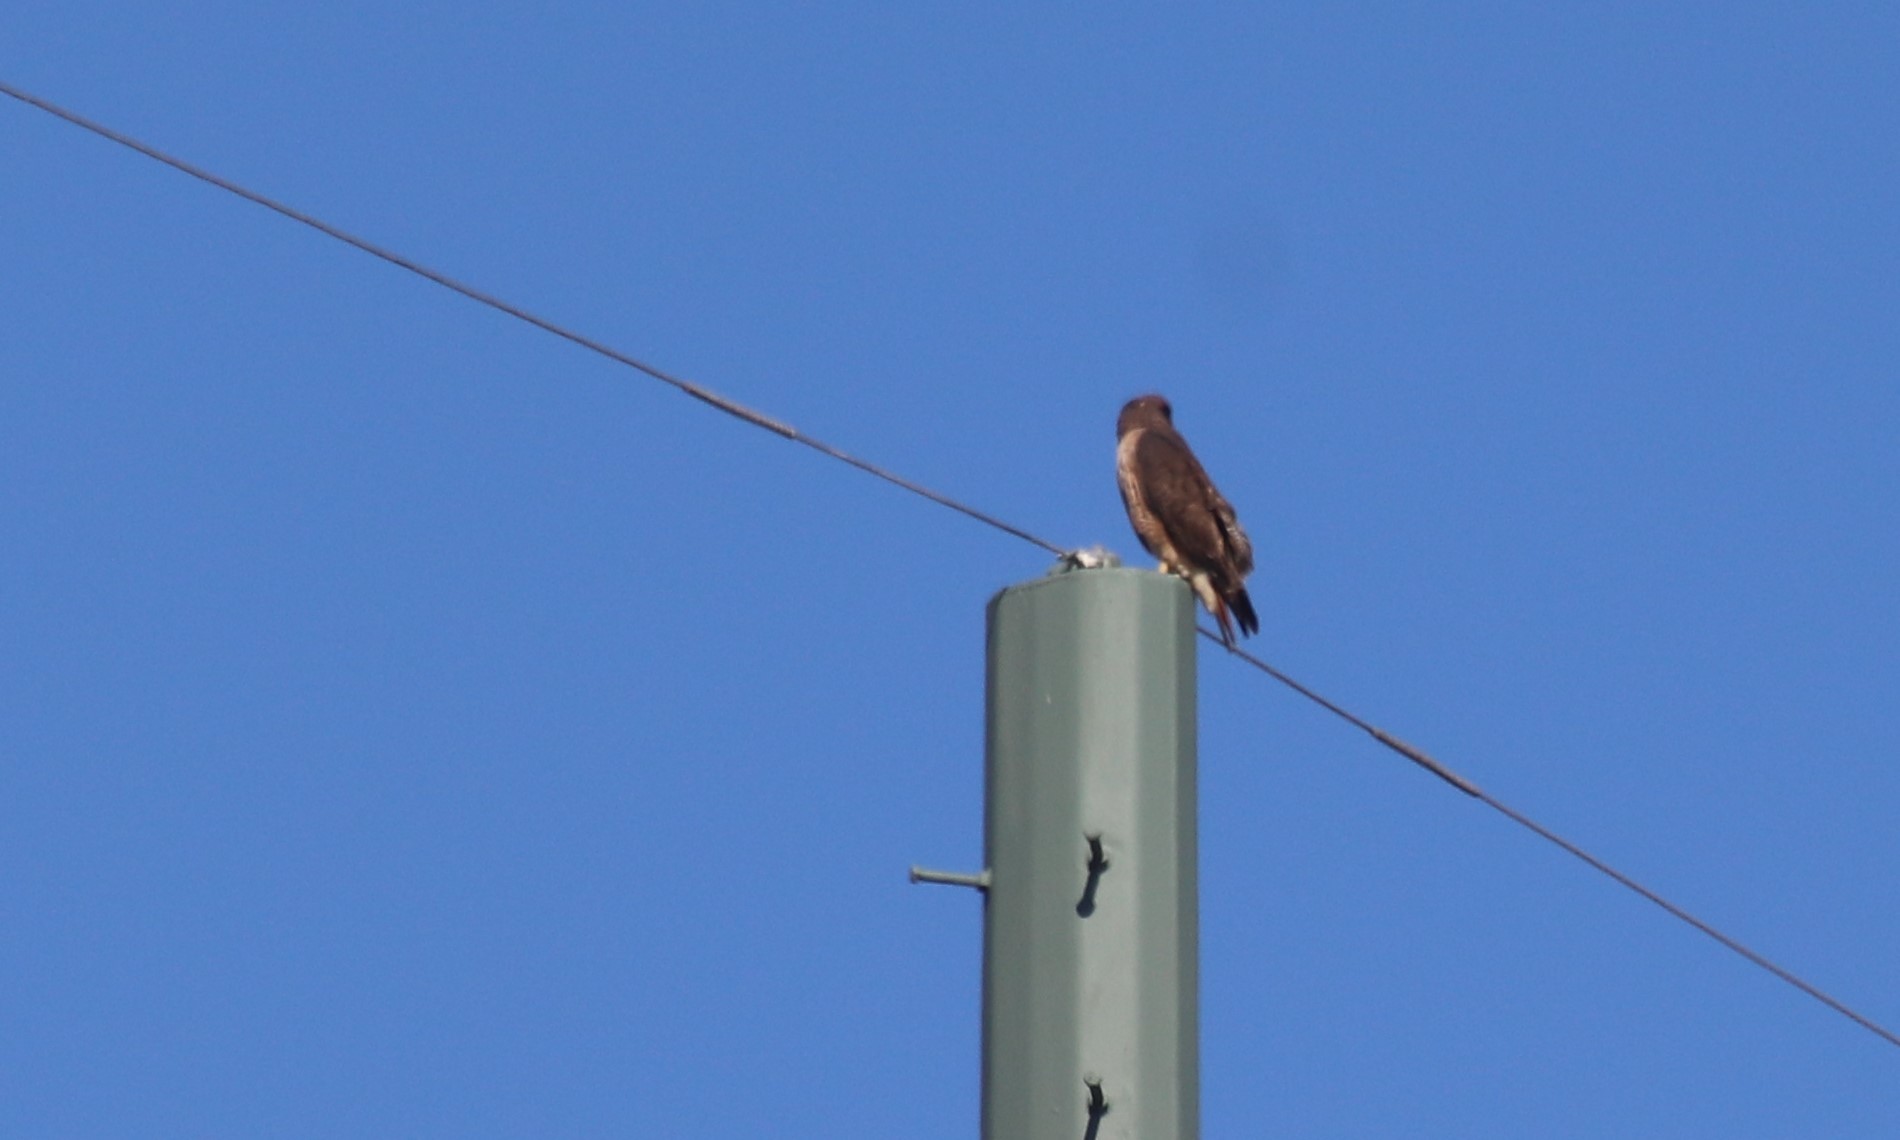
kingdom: Animalia
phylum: Chordata
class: Aves
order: Accipitriformes
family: Accipitridae
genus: Buteo
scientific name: Buteo jamaicensis
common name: Red-tailed hawk
